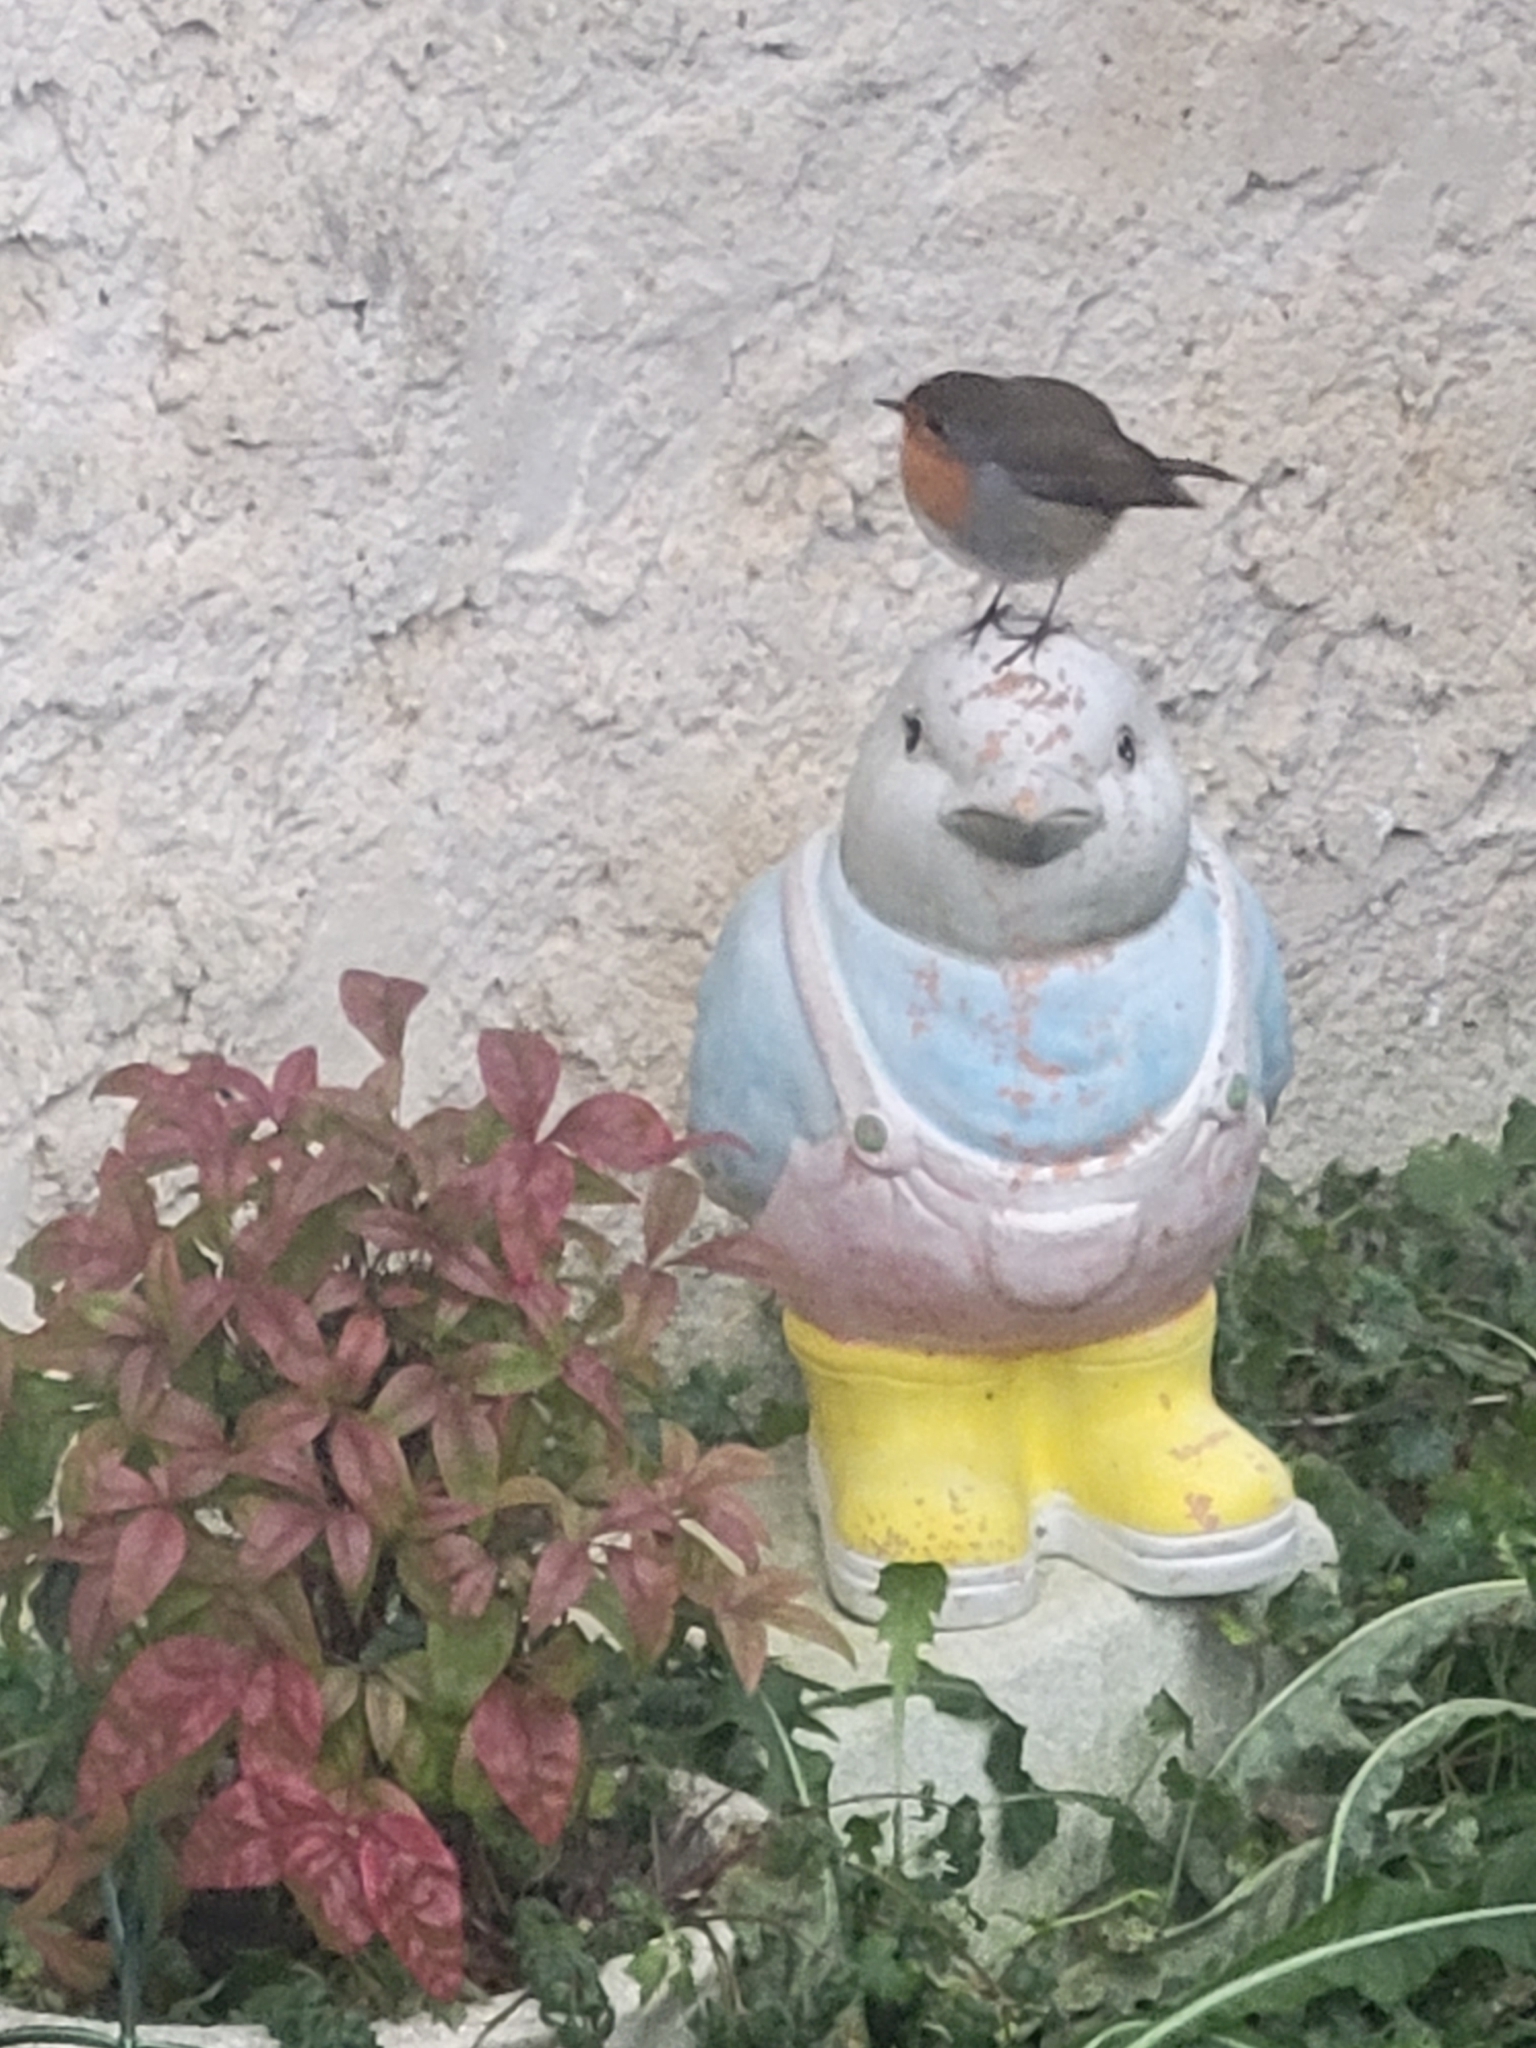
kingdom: Animalia
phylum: Chordata
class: Aves
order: Passeriformes
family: Muscicapidae
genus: Erithacus
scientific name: Erithacus rubecula
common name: European robin
